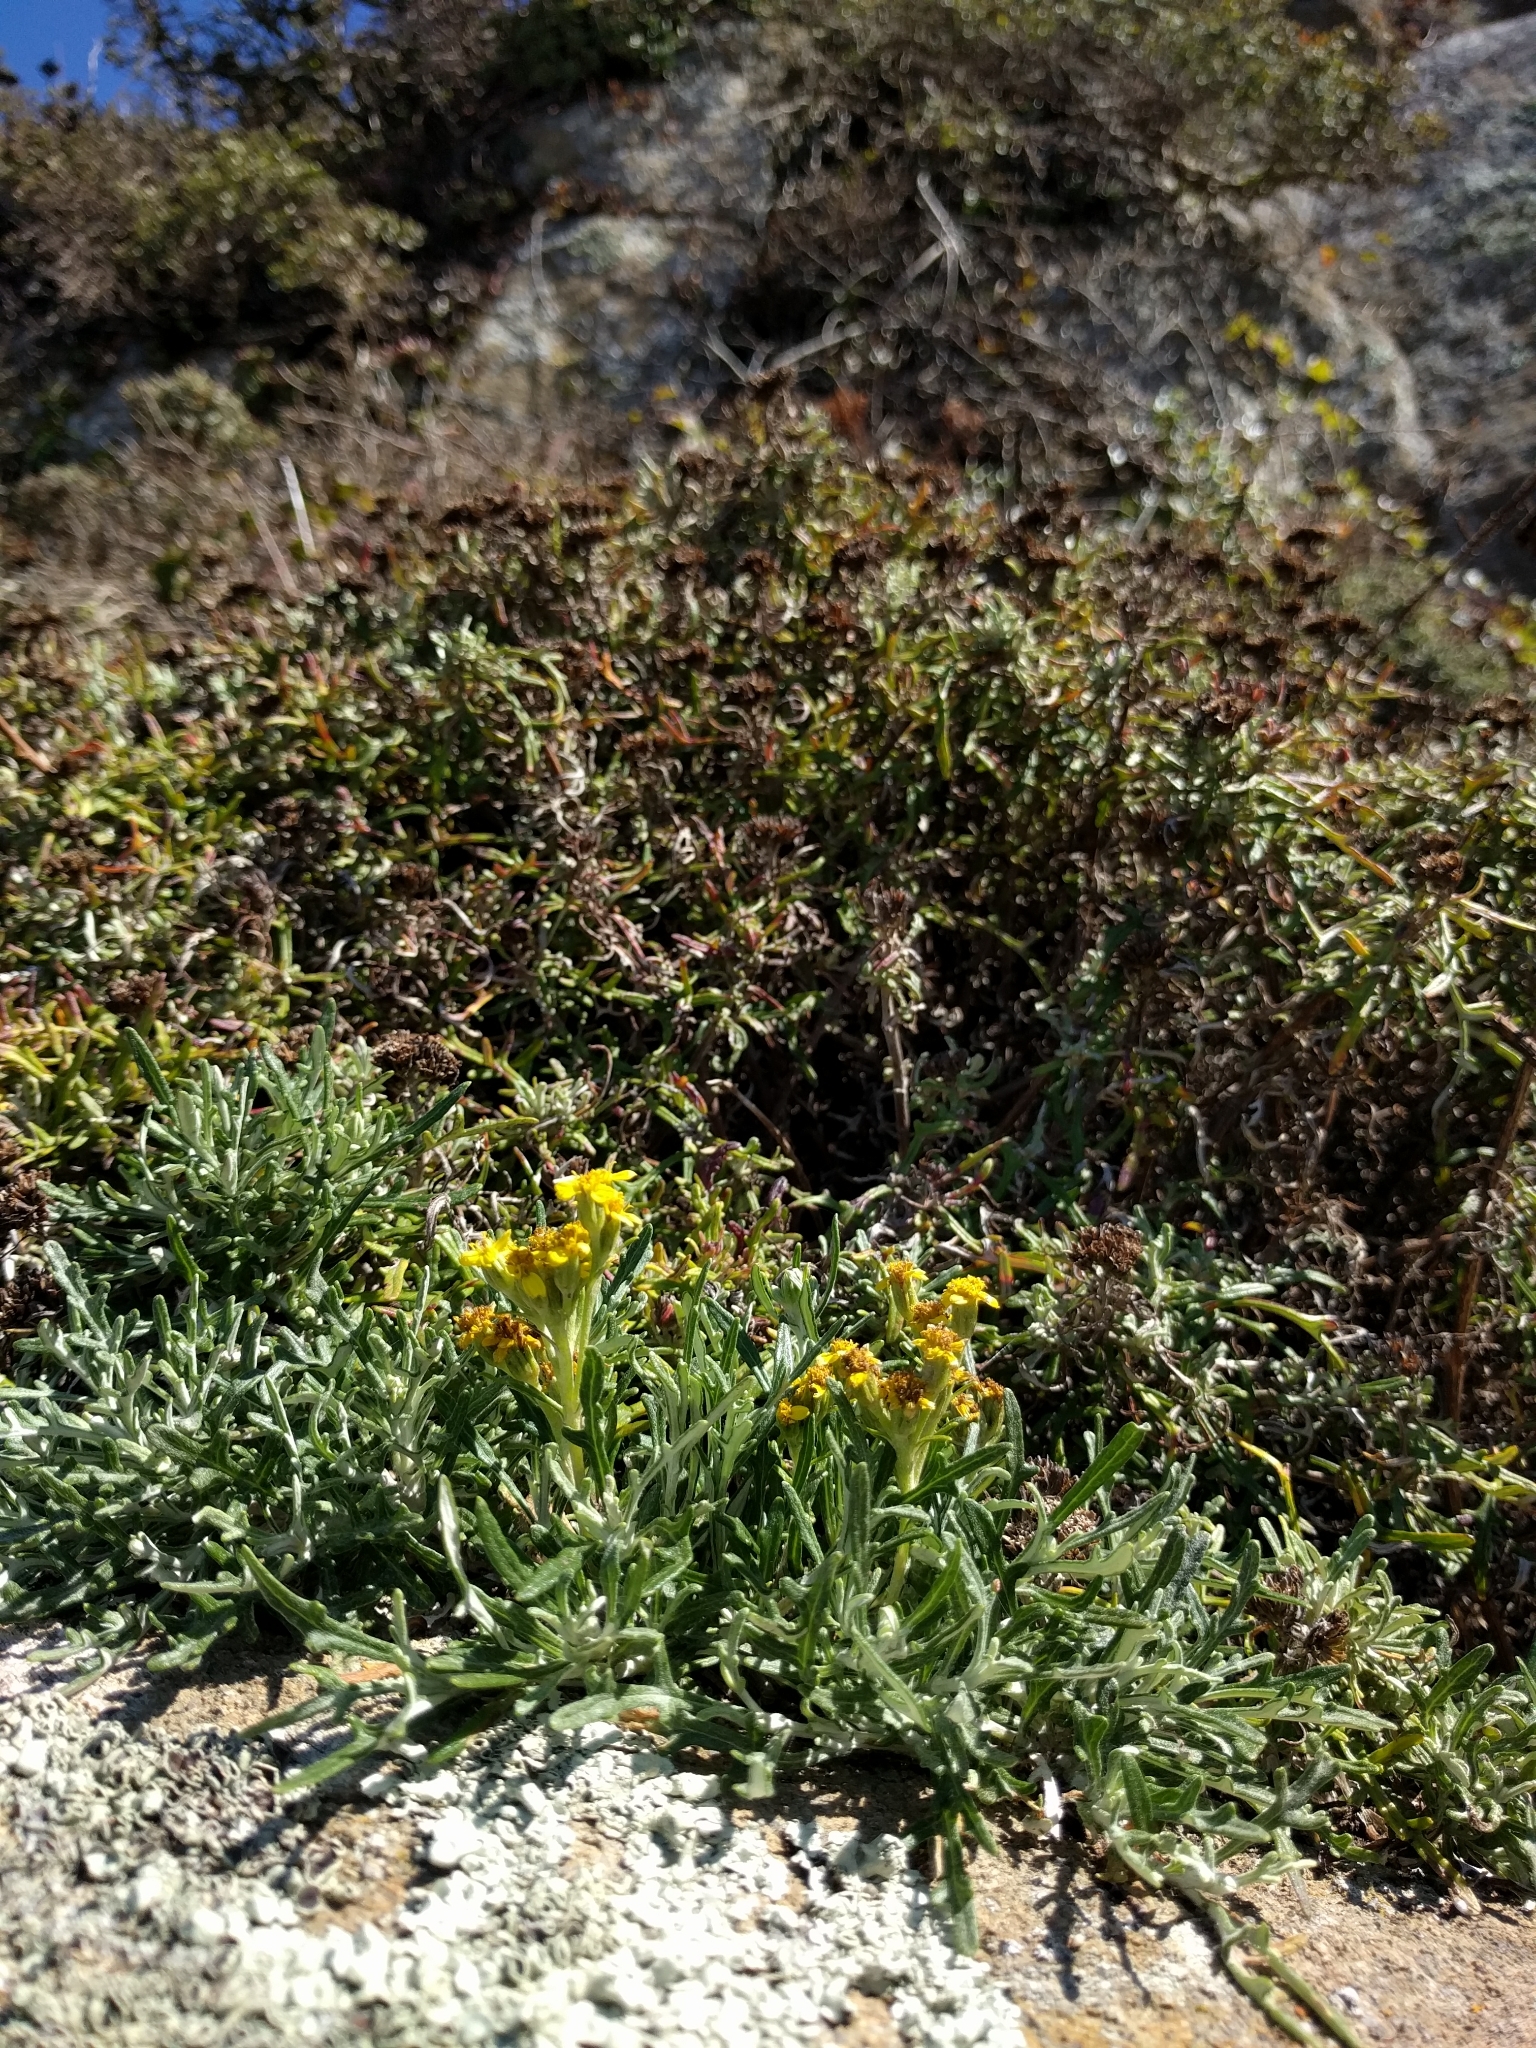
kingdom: Plantae
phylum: Tracheophyta
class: Magnoliopsida
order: Asterales
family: Asteraceae
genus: Eriophyllum
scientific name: Eriophyllum staechadifolium
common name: Lizardtail
